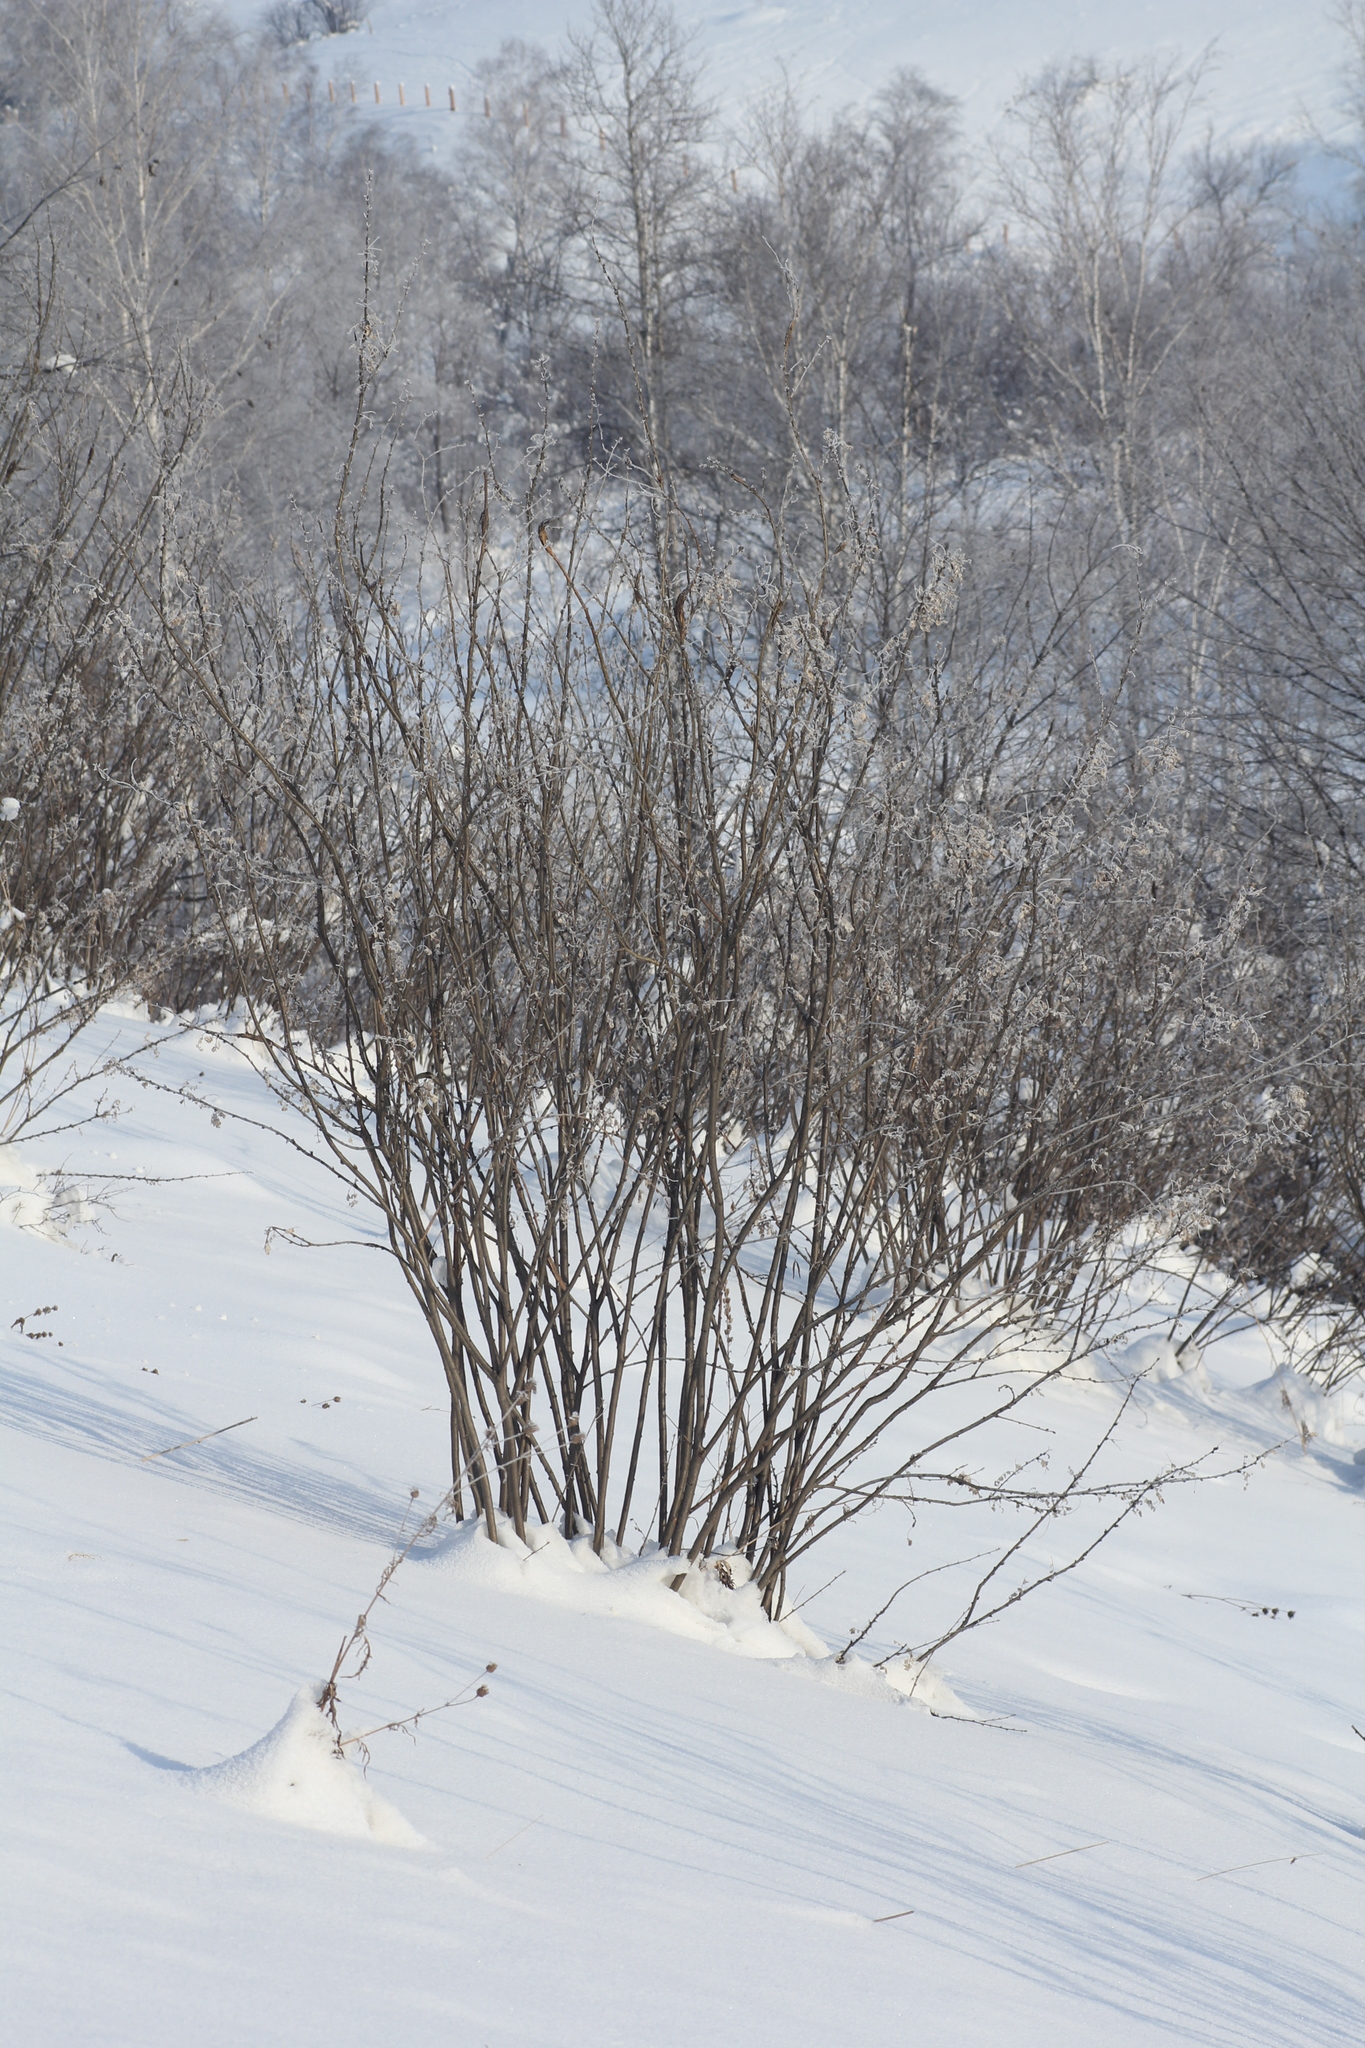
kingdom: Plantae
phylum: Tracheophyta
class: Magnoliopsida
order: Fabales
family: Fabaceae
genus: Caragana
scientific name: Caragana arborescens
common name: Siberian peashrub
